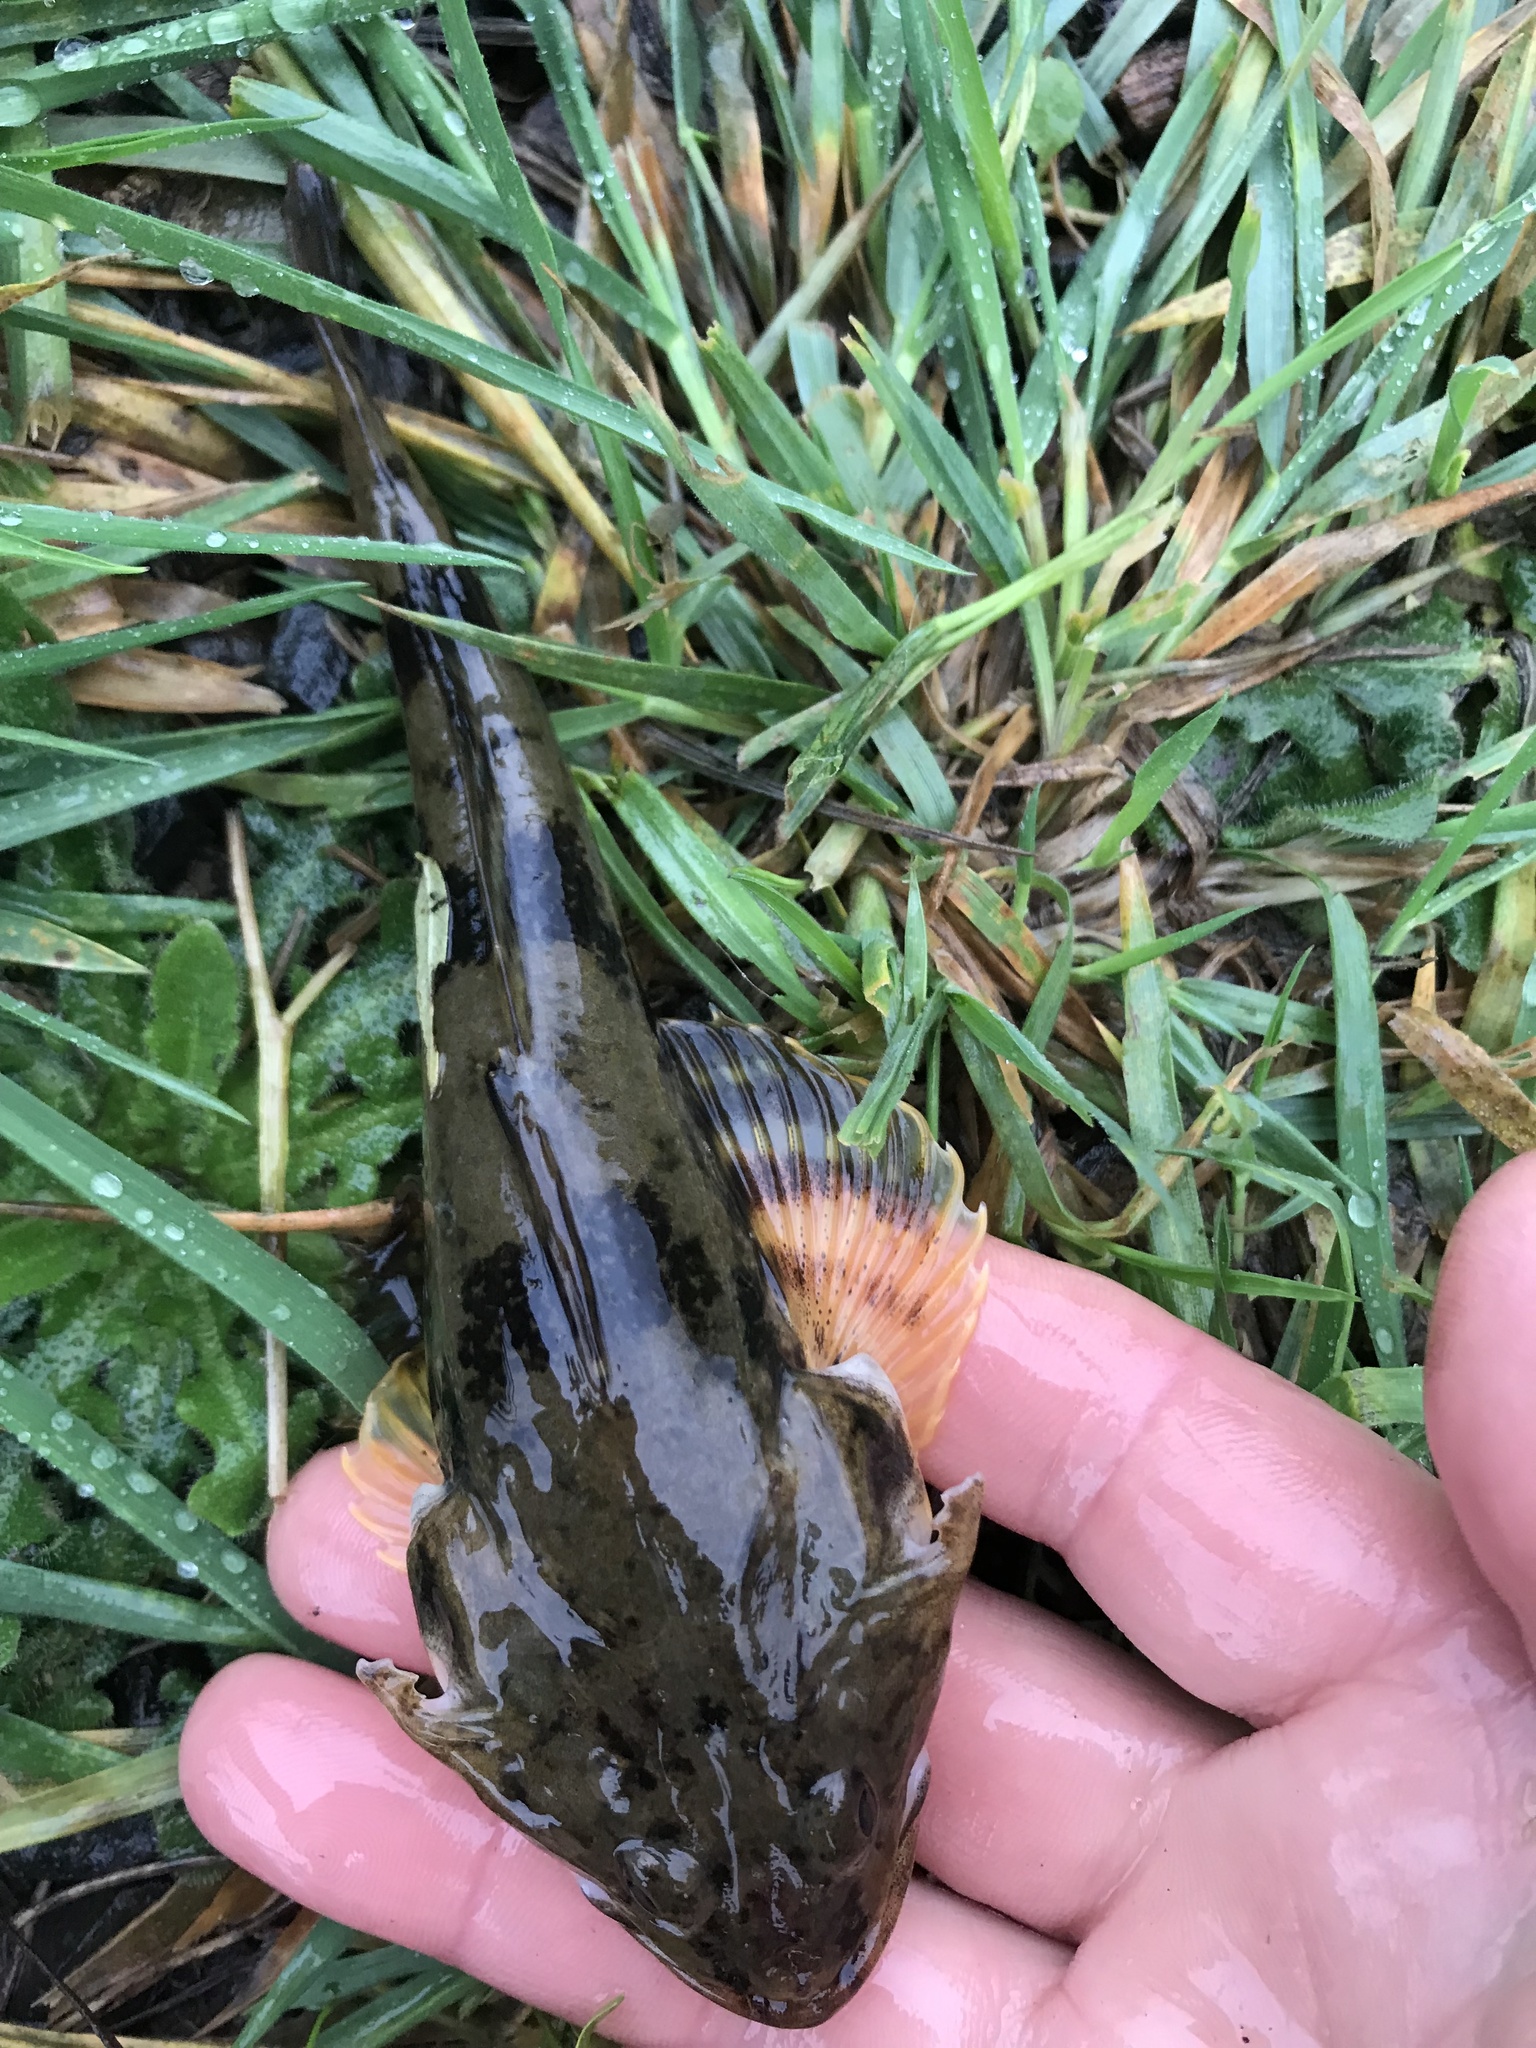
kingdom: Animalia
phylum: Chordata
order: Scorpaeniformes
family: Cottidae
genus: Leptocottus
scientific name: Leptocottus armatus
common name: Pacific staghorn sculpin
